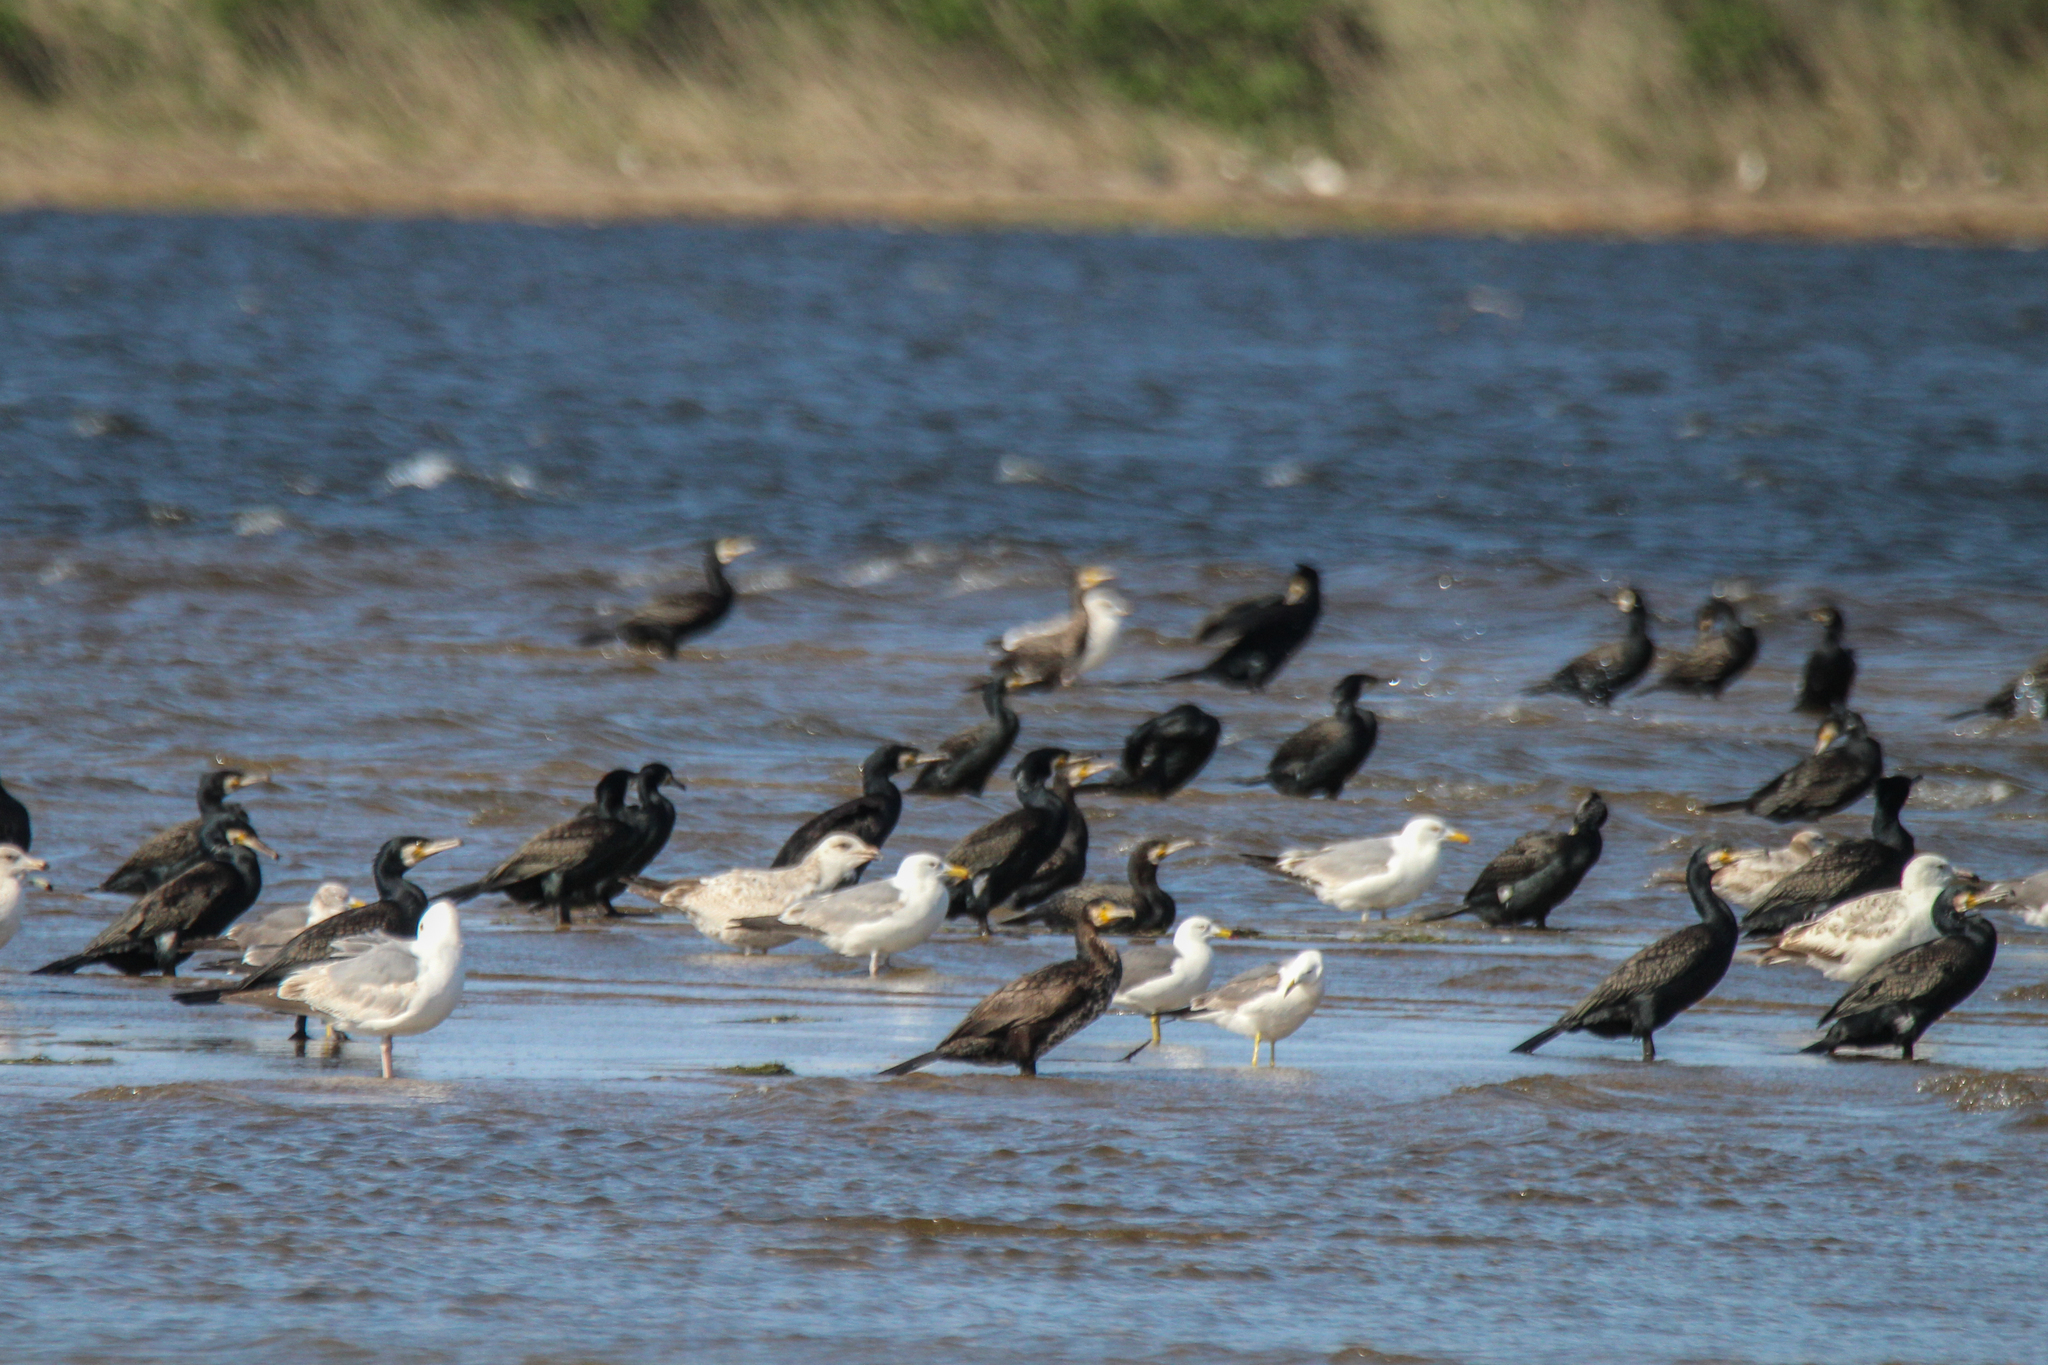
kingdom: Animalia
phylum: Chordata
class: Aves
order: Suliformes
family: Phalacrocoracidae
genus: Phalacrocorax
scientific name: Phalacrocorax carbo
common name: Great cormorant
